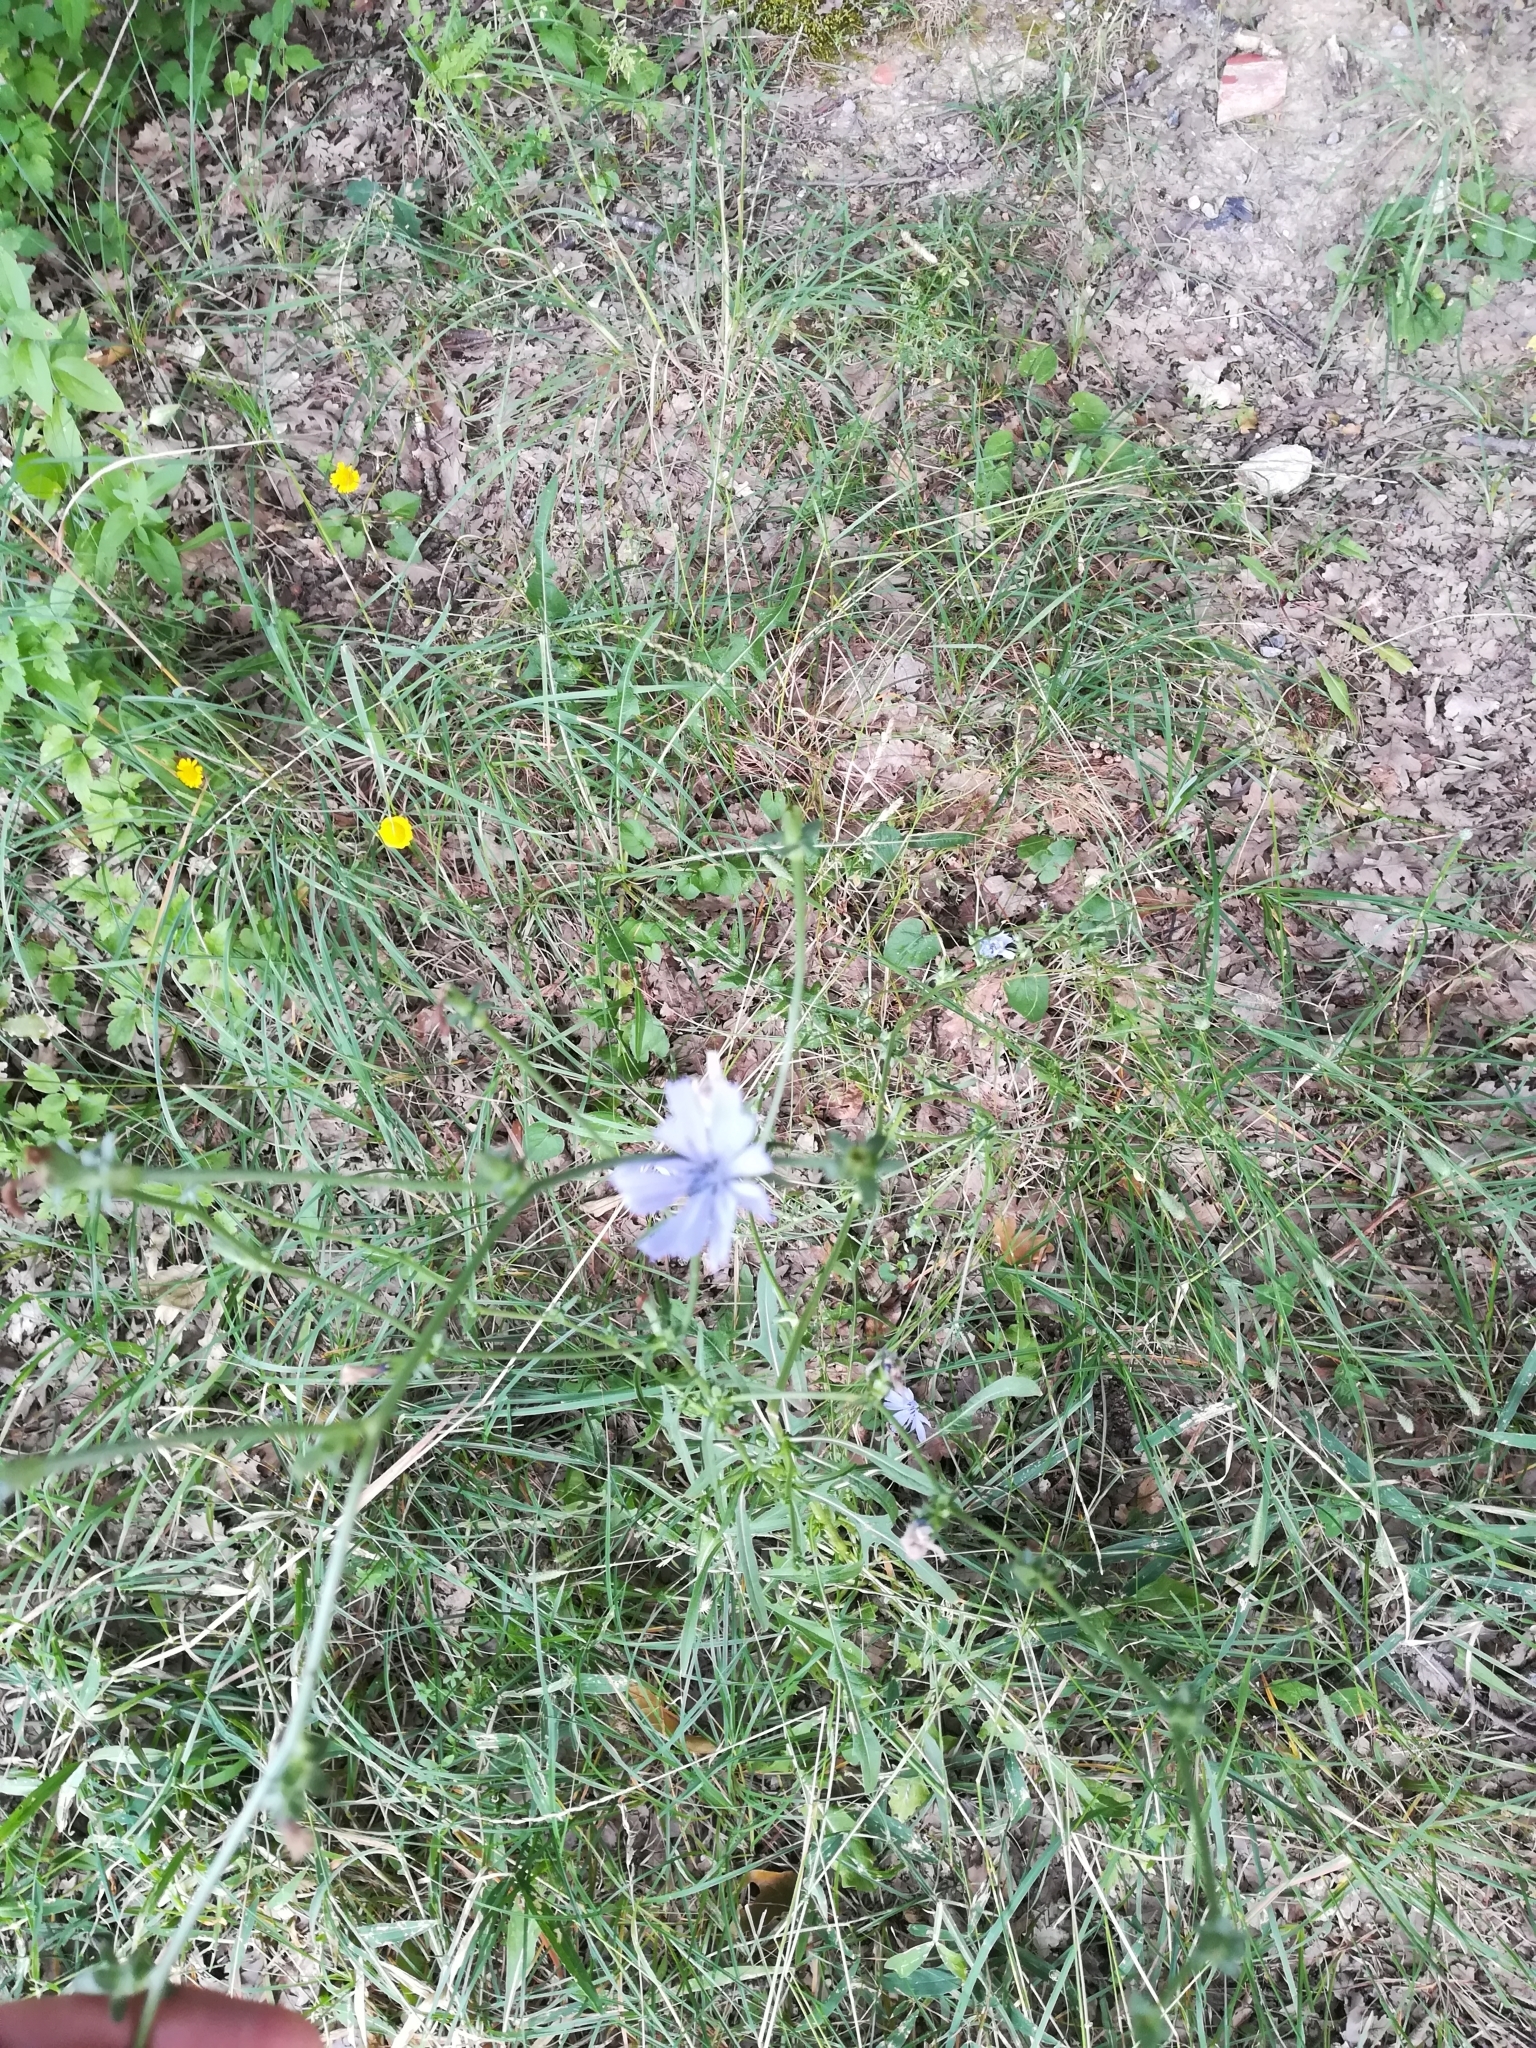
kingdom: Plantae
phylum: Tracheophyta
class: Magnoliopsida
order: Asterales
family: Asteraceae
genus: Cichorium
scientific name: Cichorium intybus
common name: Chicory
